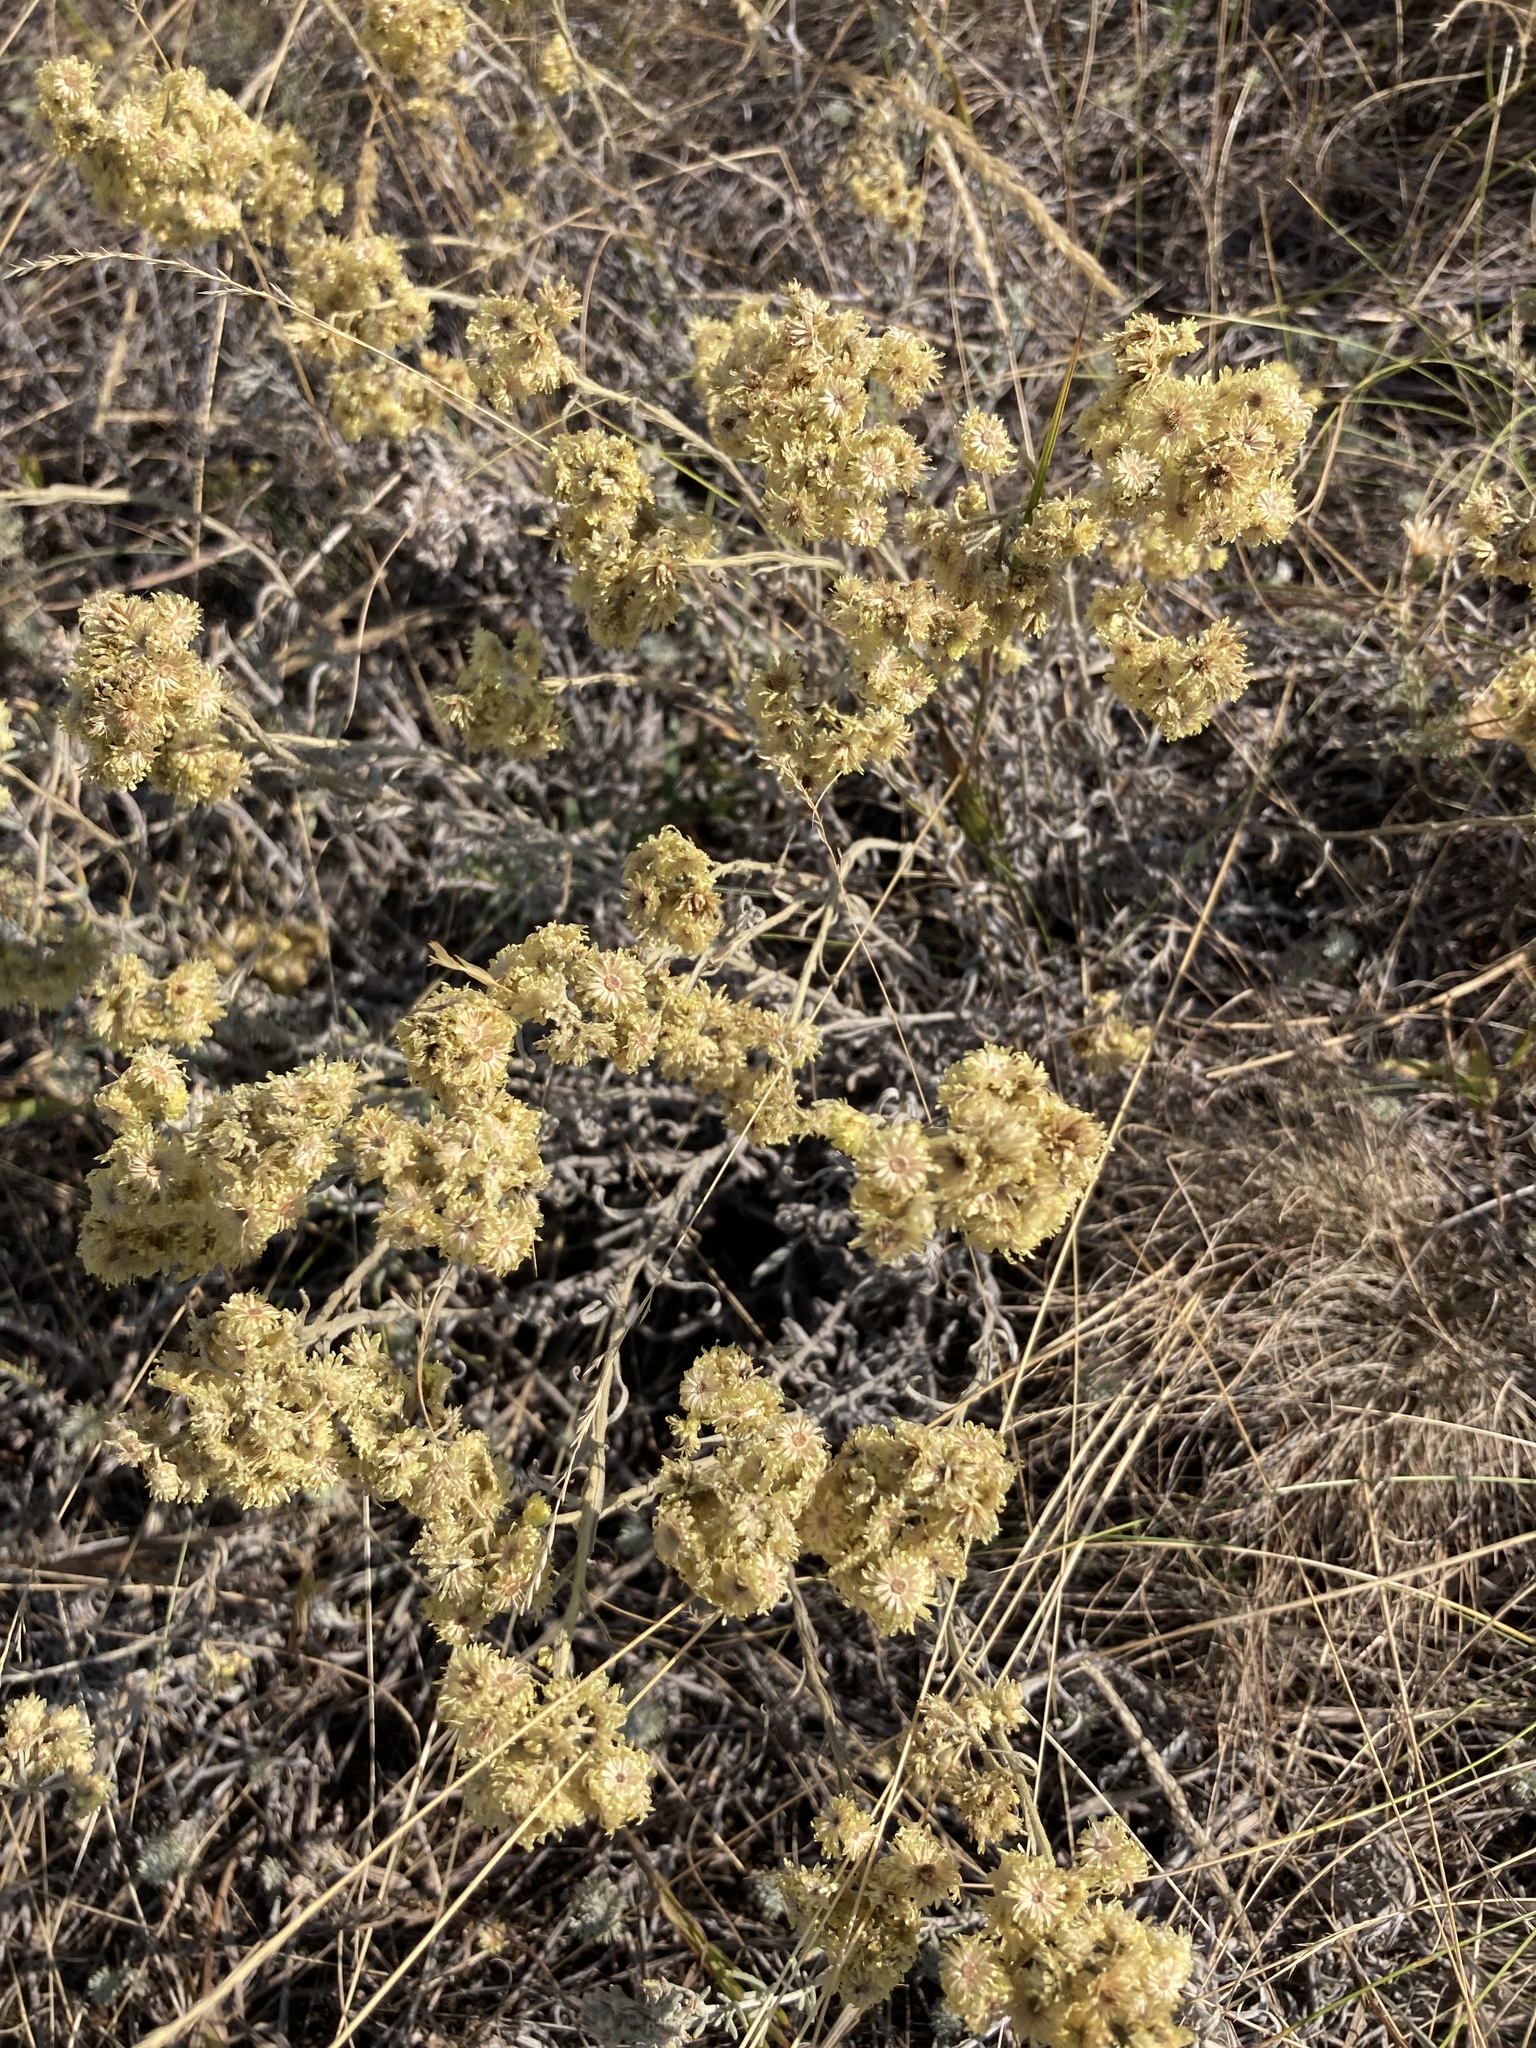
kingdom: Plantae
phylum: Tracheophyta
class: Magnoliopsida
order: Asterales
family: Asteraceae
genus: Helichrysum
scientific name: Helichrysum arenarium
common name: Strawflower
